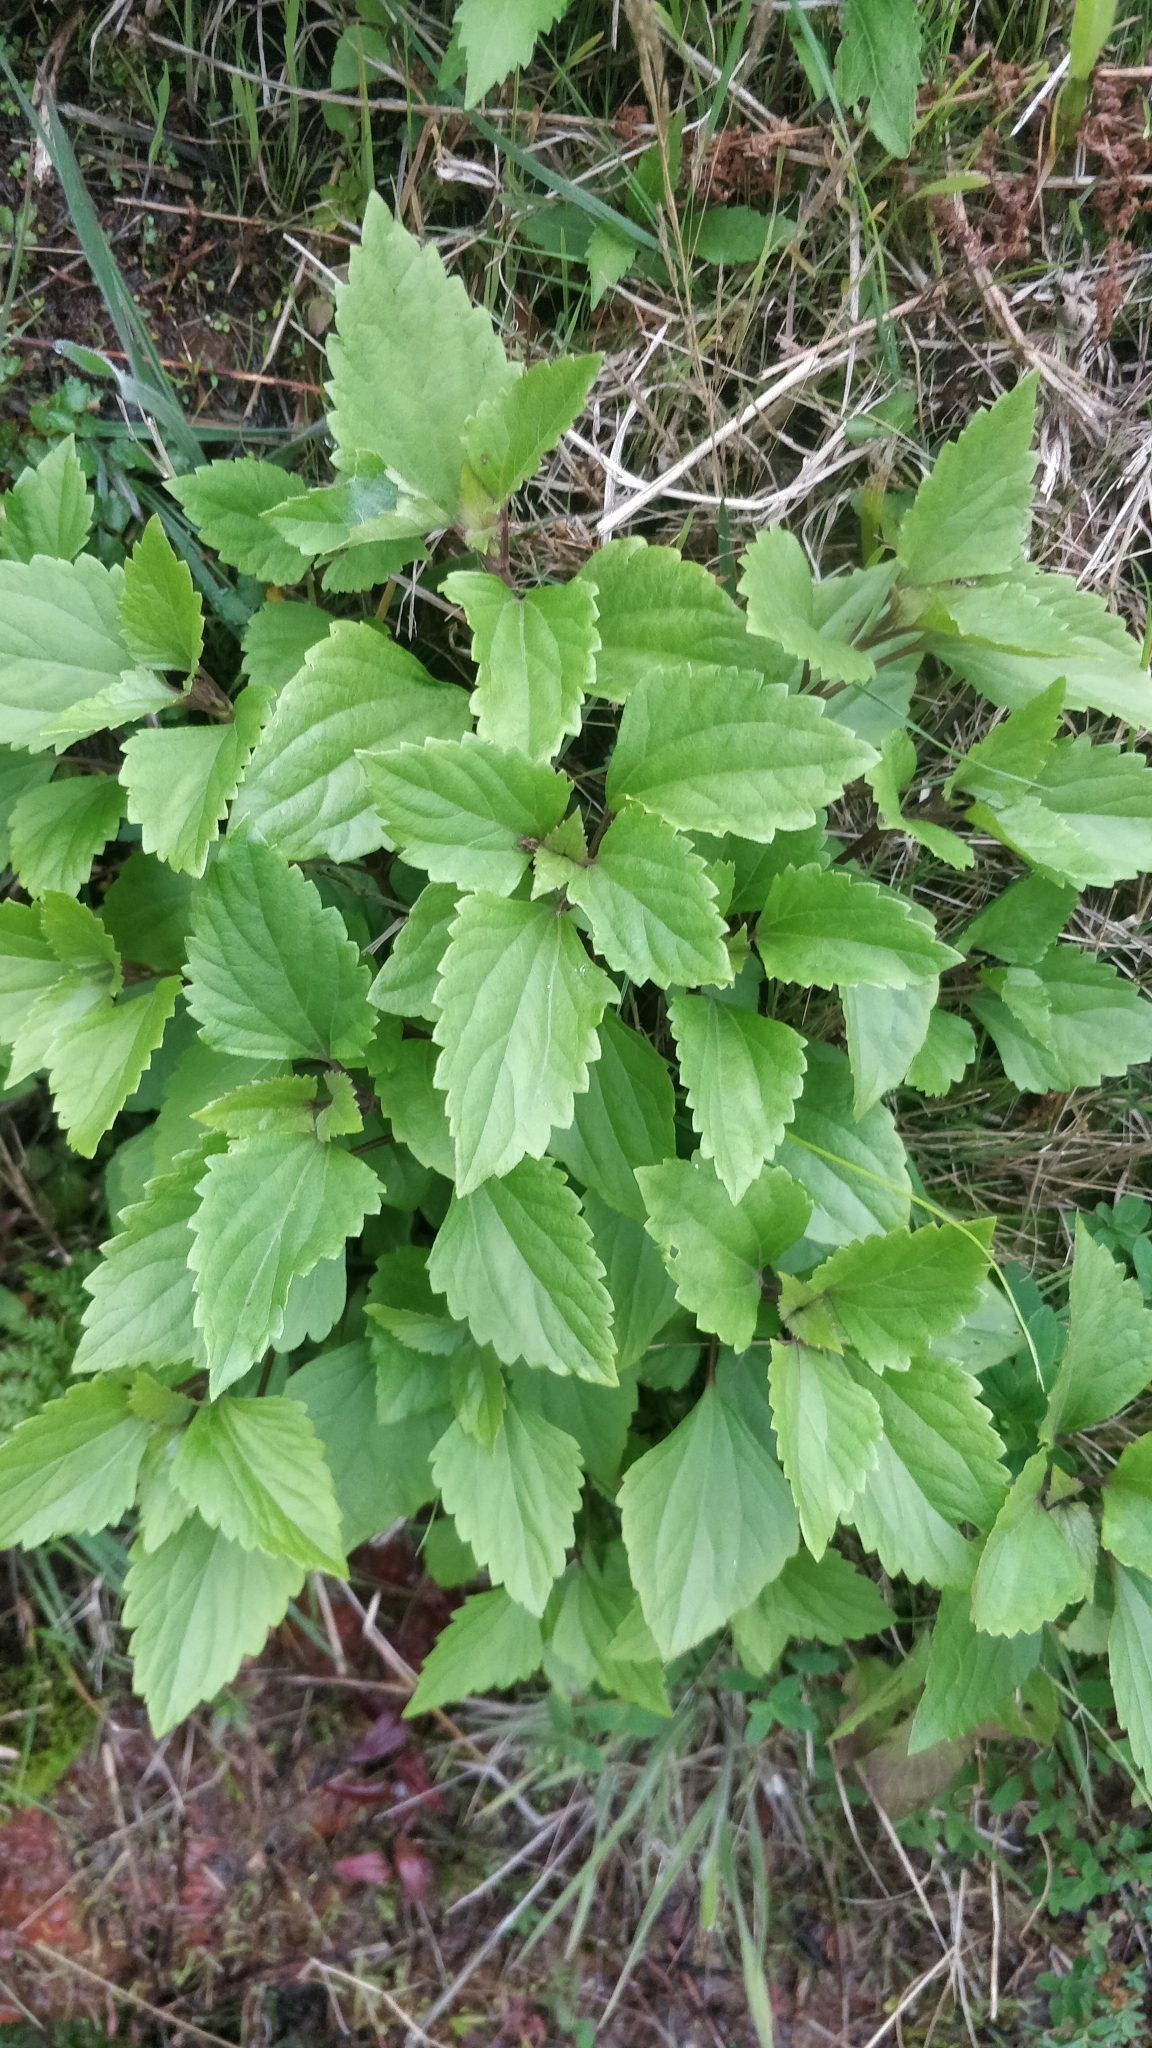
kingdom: Plantae
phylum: Tracheophyta
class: Magnoliopsida
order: Asterales
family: Asteraceae
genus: Ageratina
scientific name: Ageratina adenophora
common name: Sticky snakeroot
